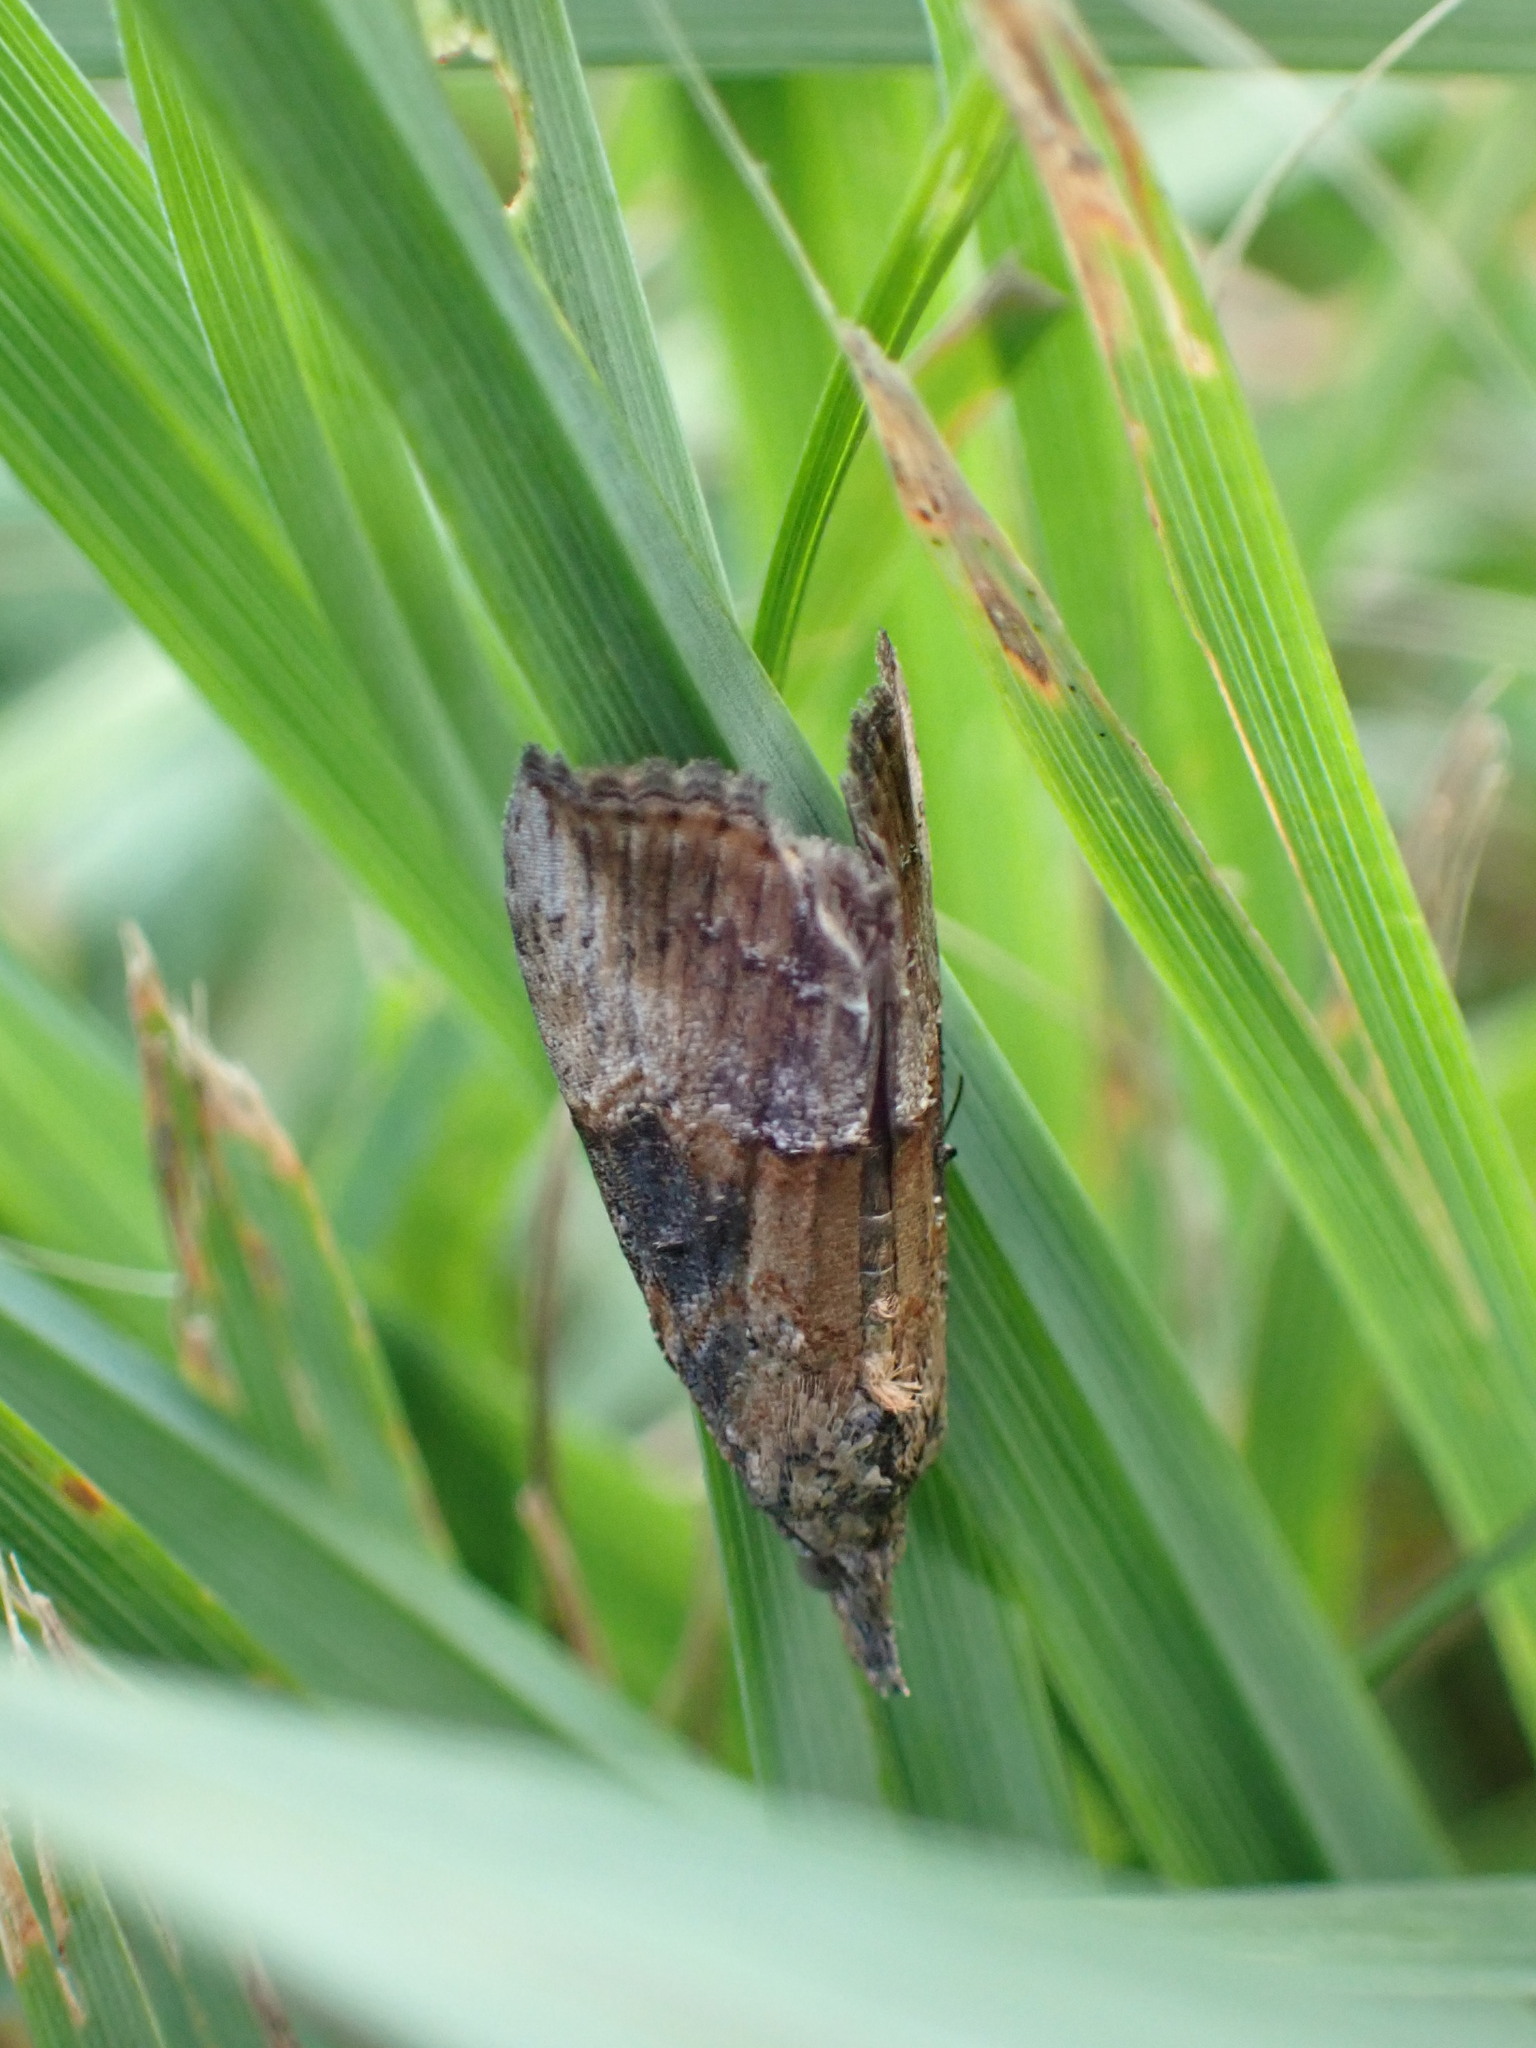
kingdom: Animalia
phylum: Arthropoda
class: Insecta
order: Lepidoptera
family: Erebidae
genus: Hypena
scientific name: Hypena scabra
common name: Green cloverworm
